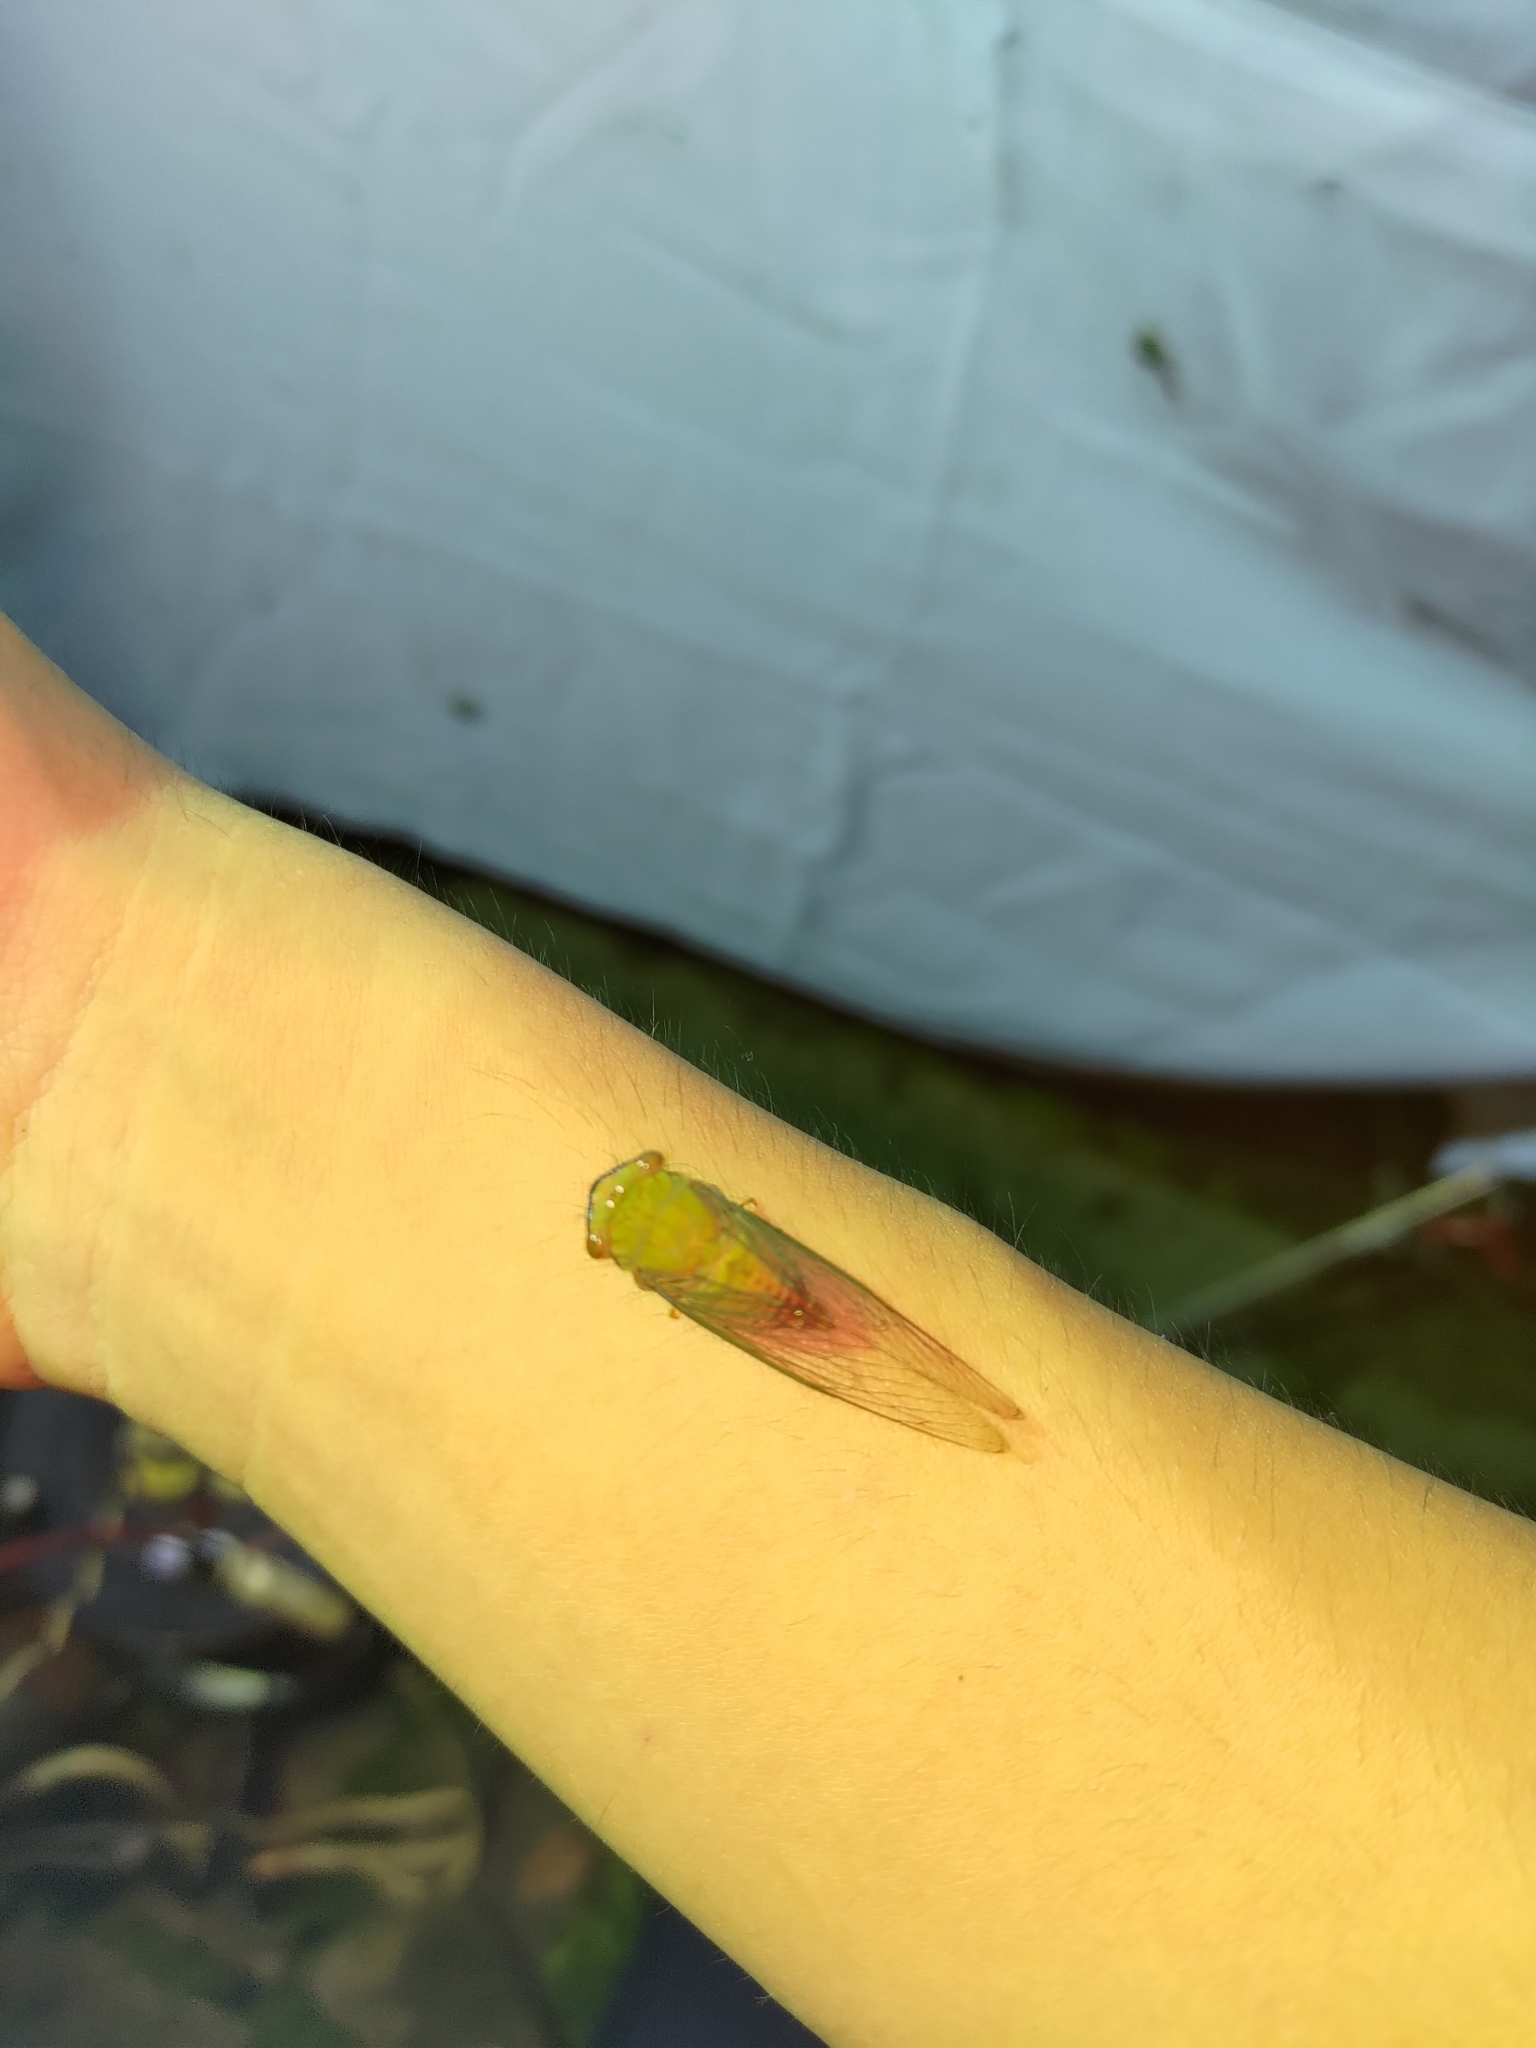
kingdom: Animalia
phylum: Arthropoda
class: Insecta
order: Hemiptera
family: Cicadidae
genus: Chremistica
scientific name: Chremistica ochracea
